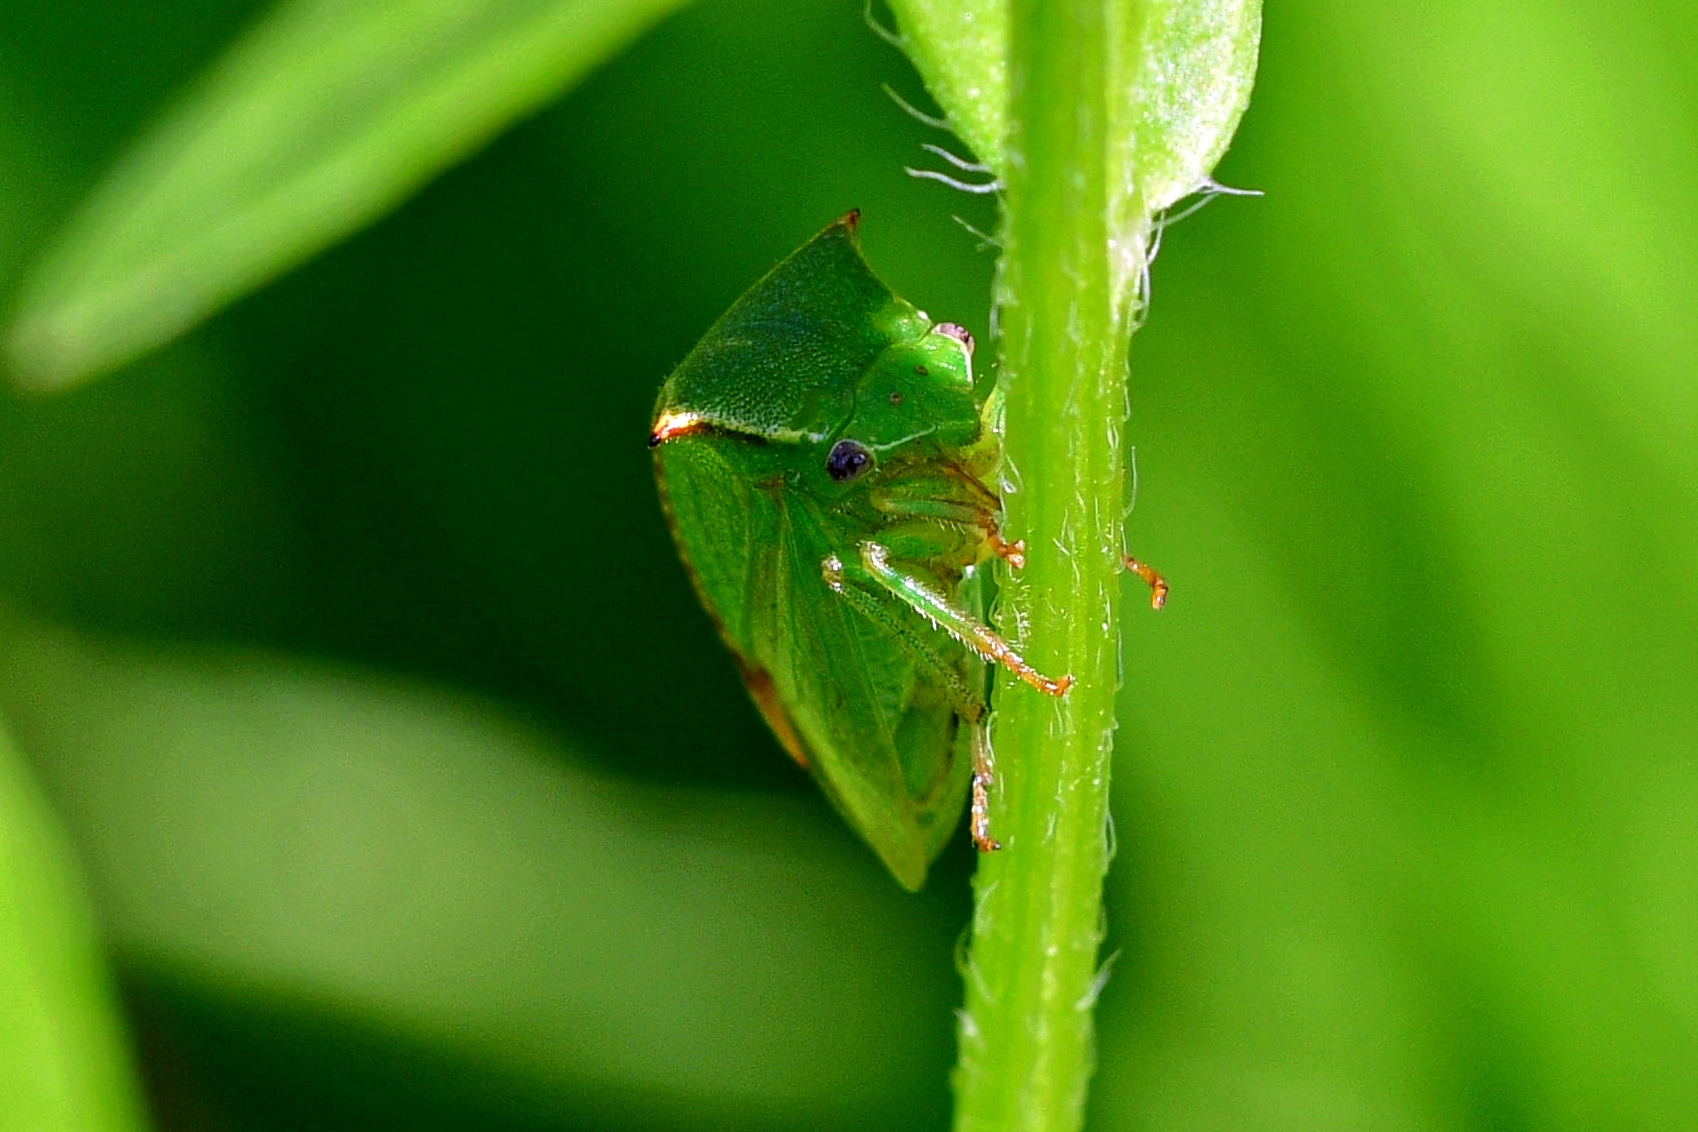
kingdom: Animalia
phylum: Arthropoda
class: Insecta
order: Hemiptera
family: Membracidae
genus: Stictocephala
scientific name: Stictocephala bisonia
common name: American buffalo treehopper
